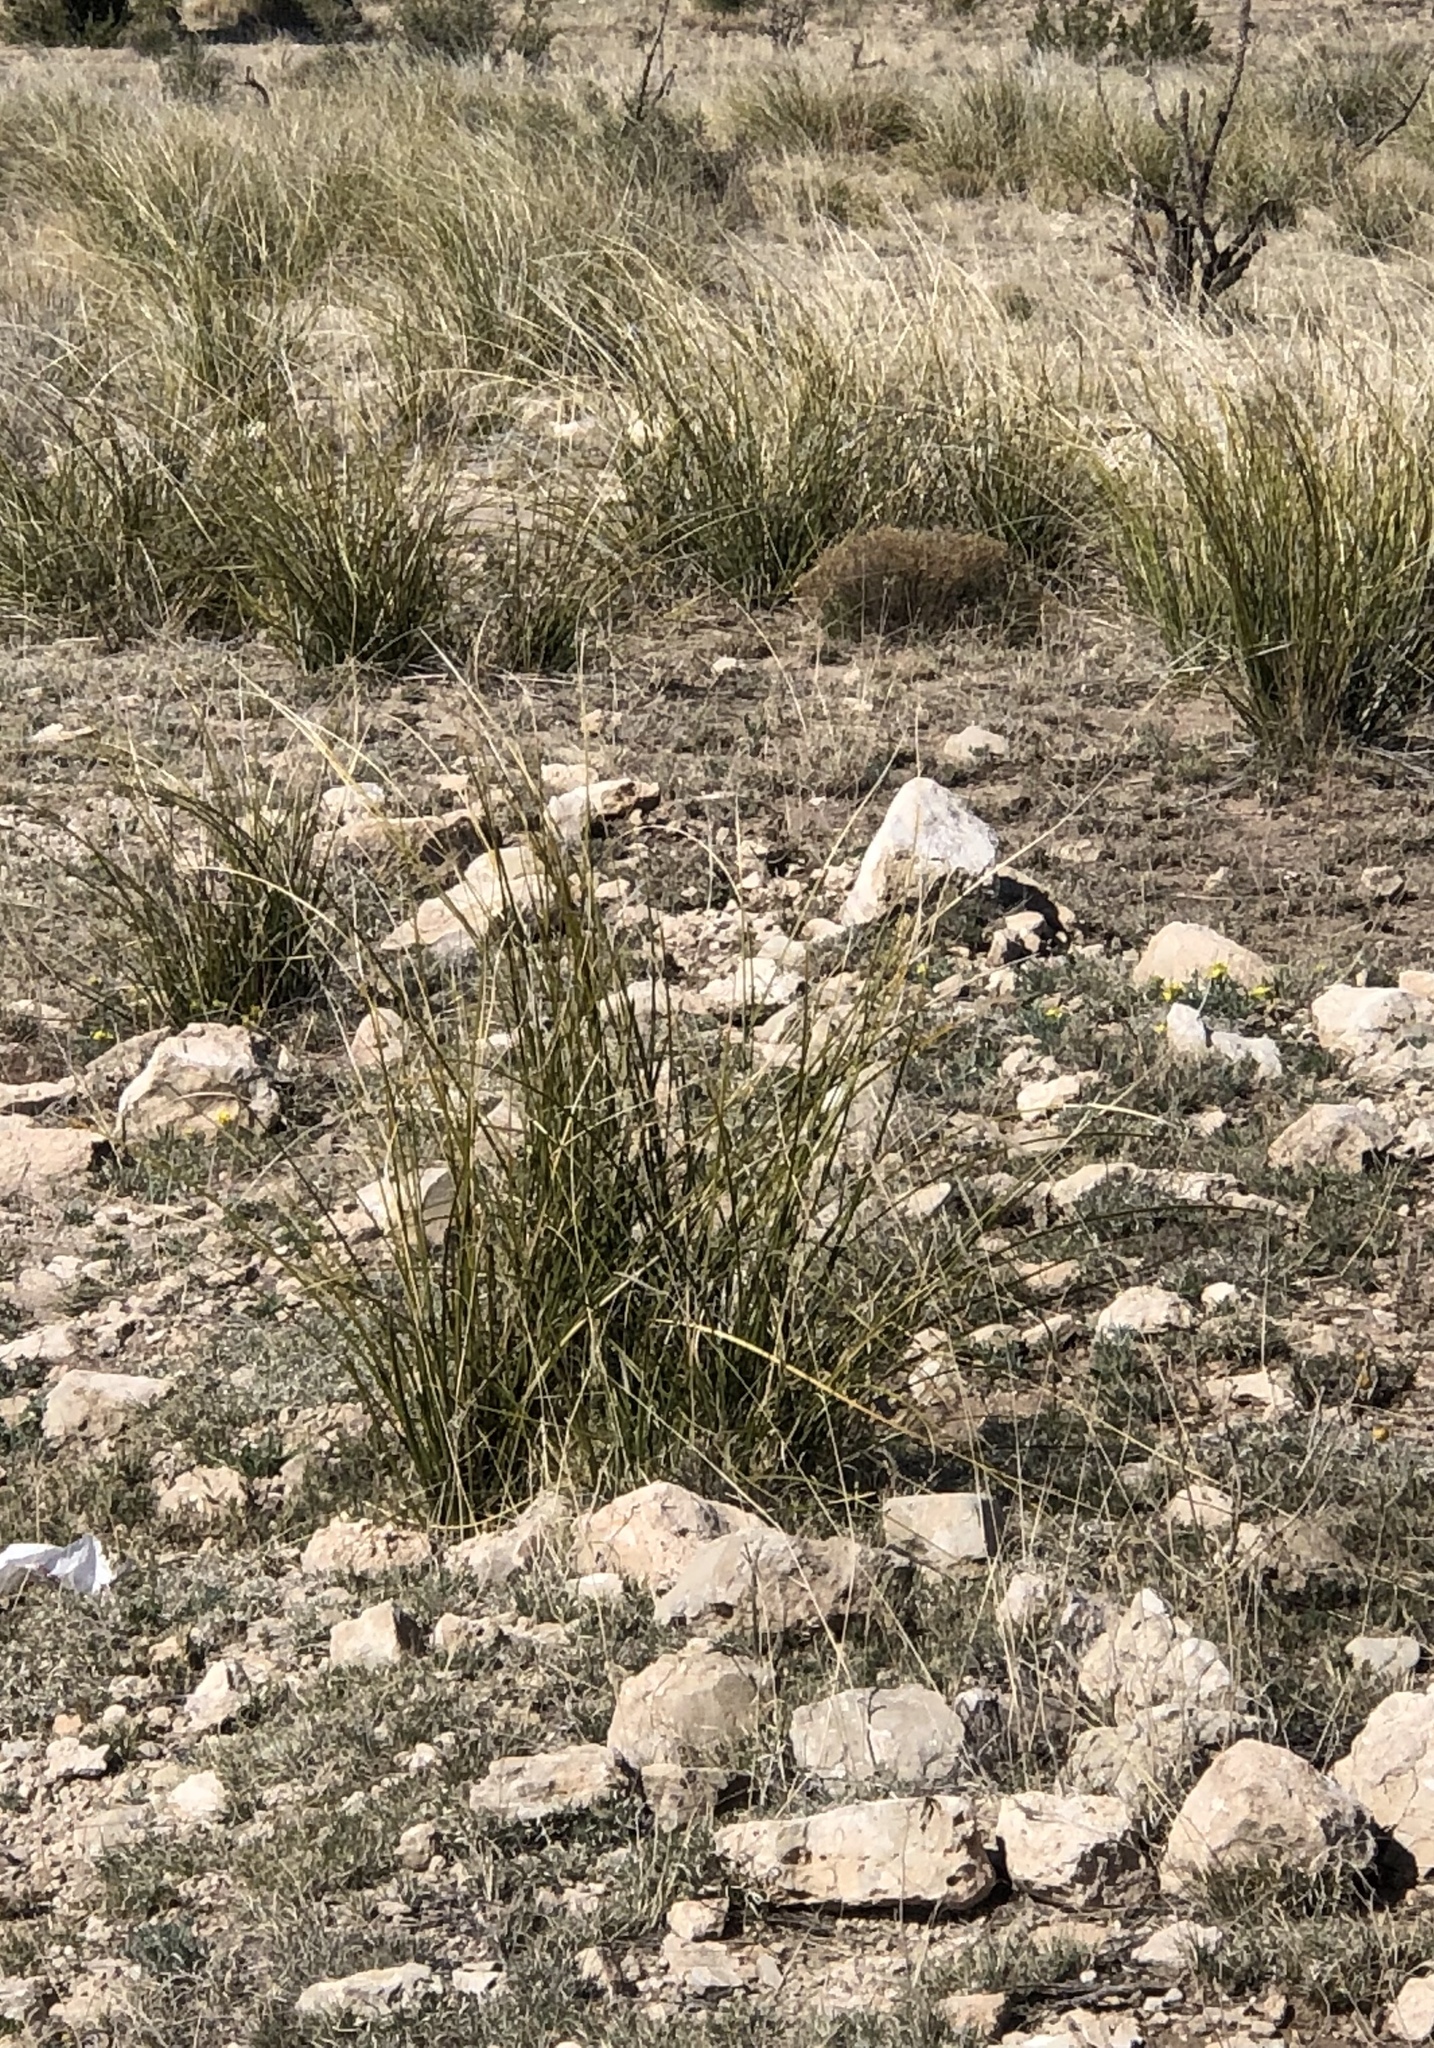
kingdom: Plantae
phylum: Tracheophyta
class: Liliopsida
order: Asparagales
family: Asparagaceae
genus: Nolina
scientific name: Nolina microcarpa
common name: Bear-grass
